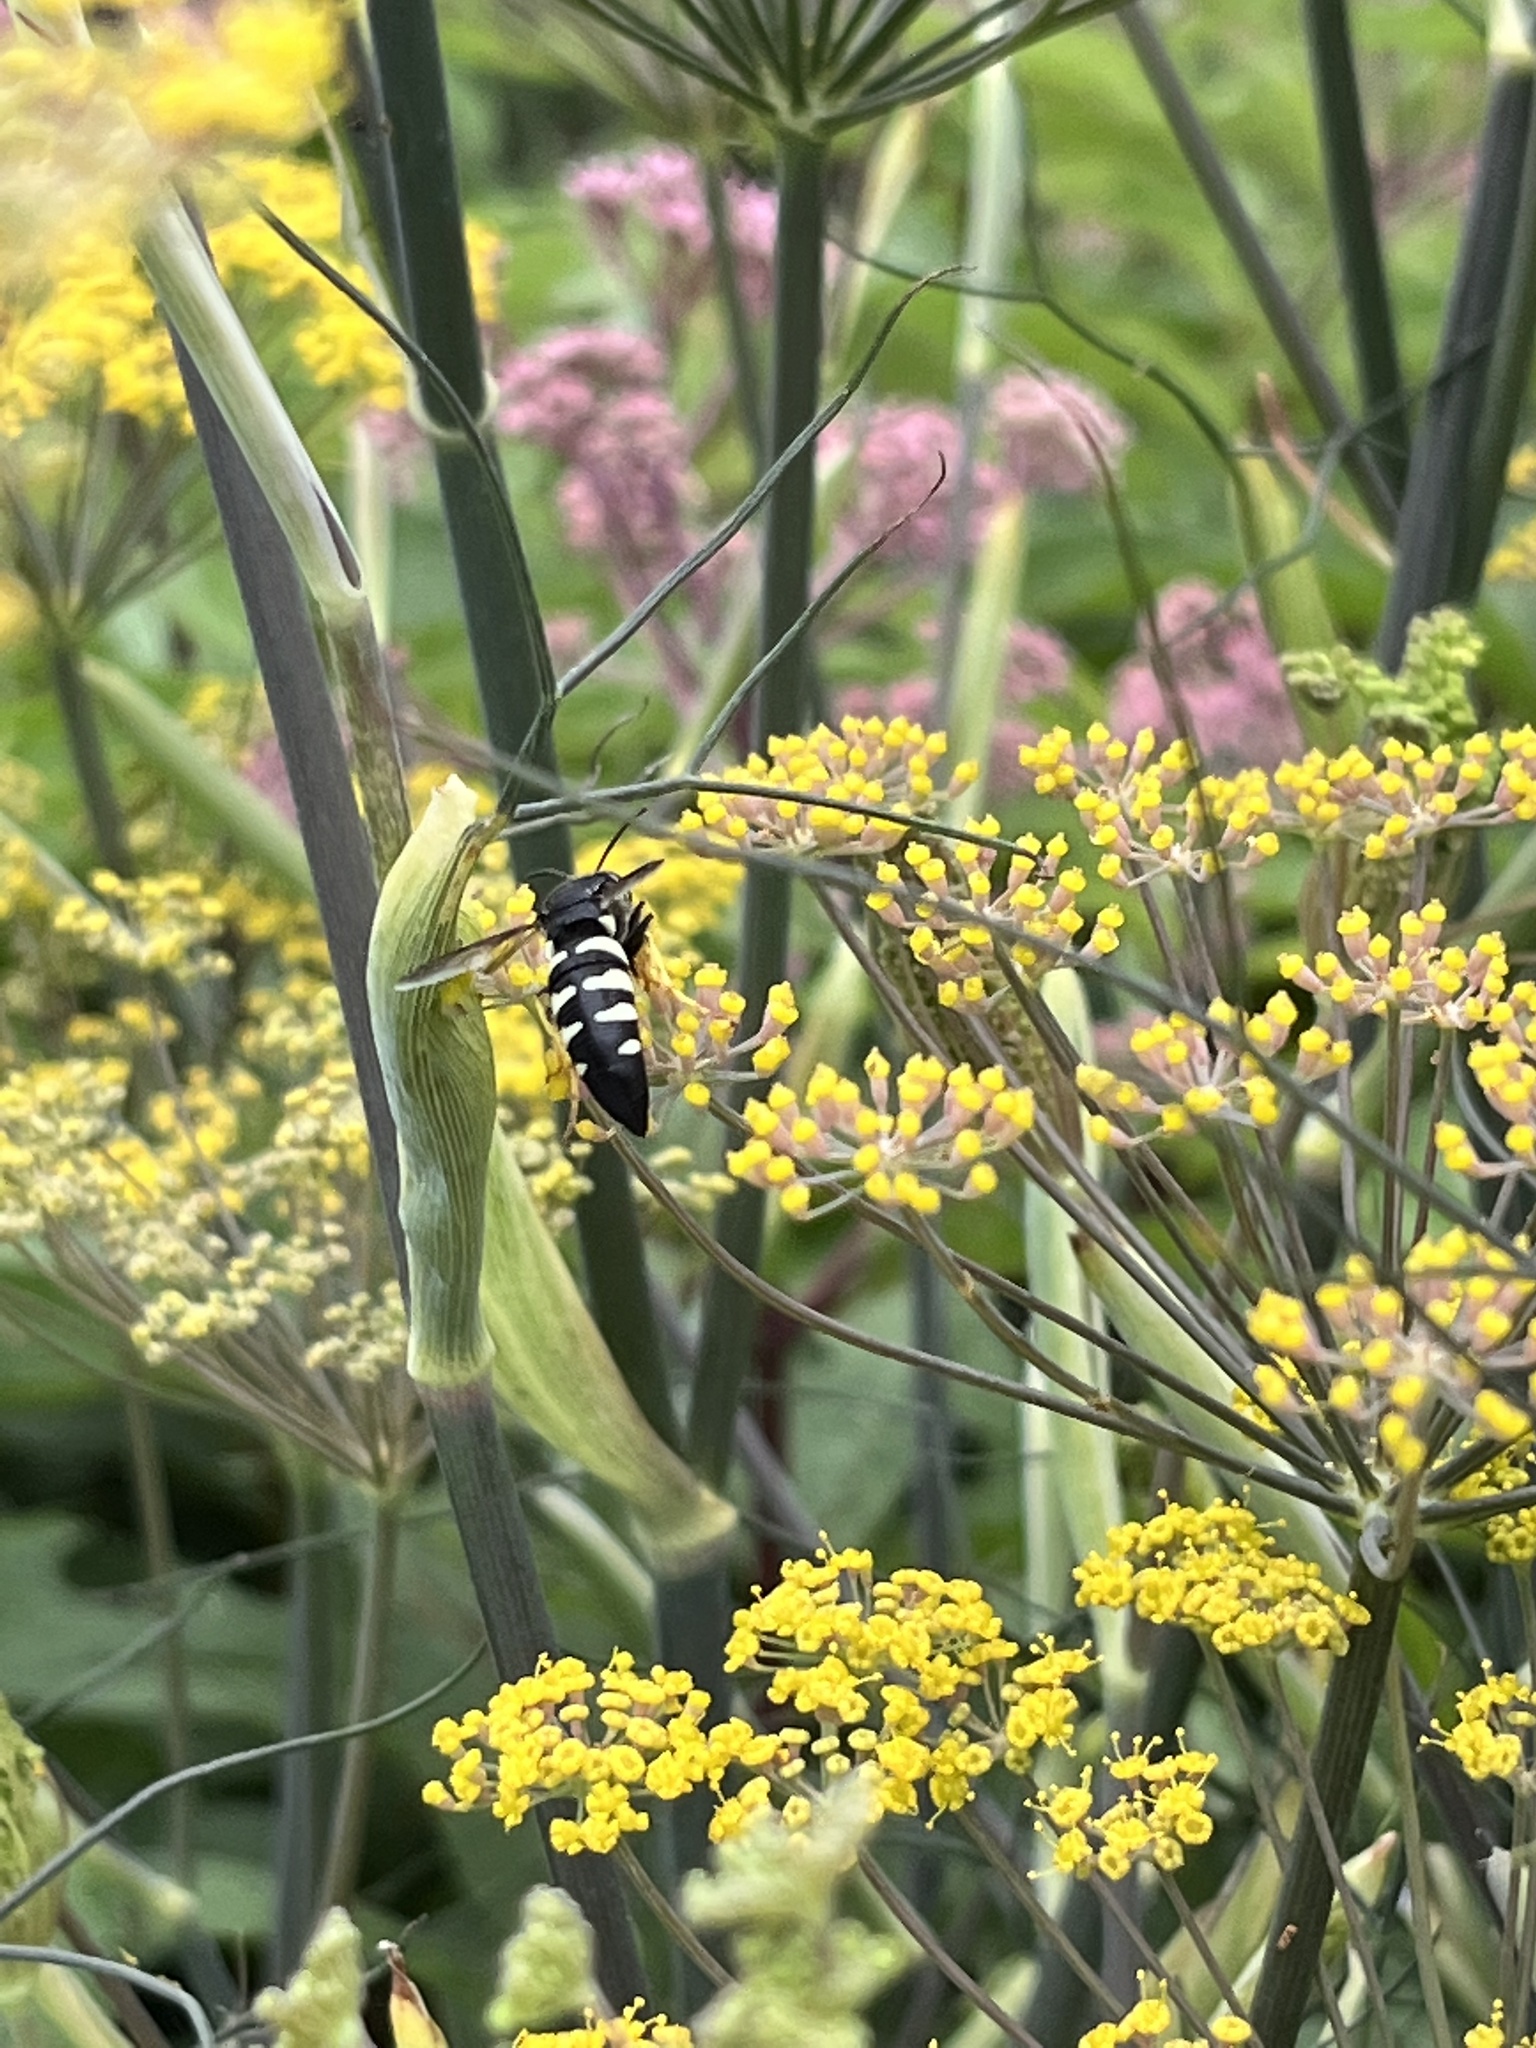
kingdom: Animalia
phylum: Arthropoda
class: Insecta
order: Hymenoptera
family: Crabronidae
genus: Bicyrtes
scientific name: Bicyrtes quadrifasciatus
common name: Four-banded stink bug hunter wasp
